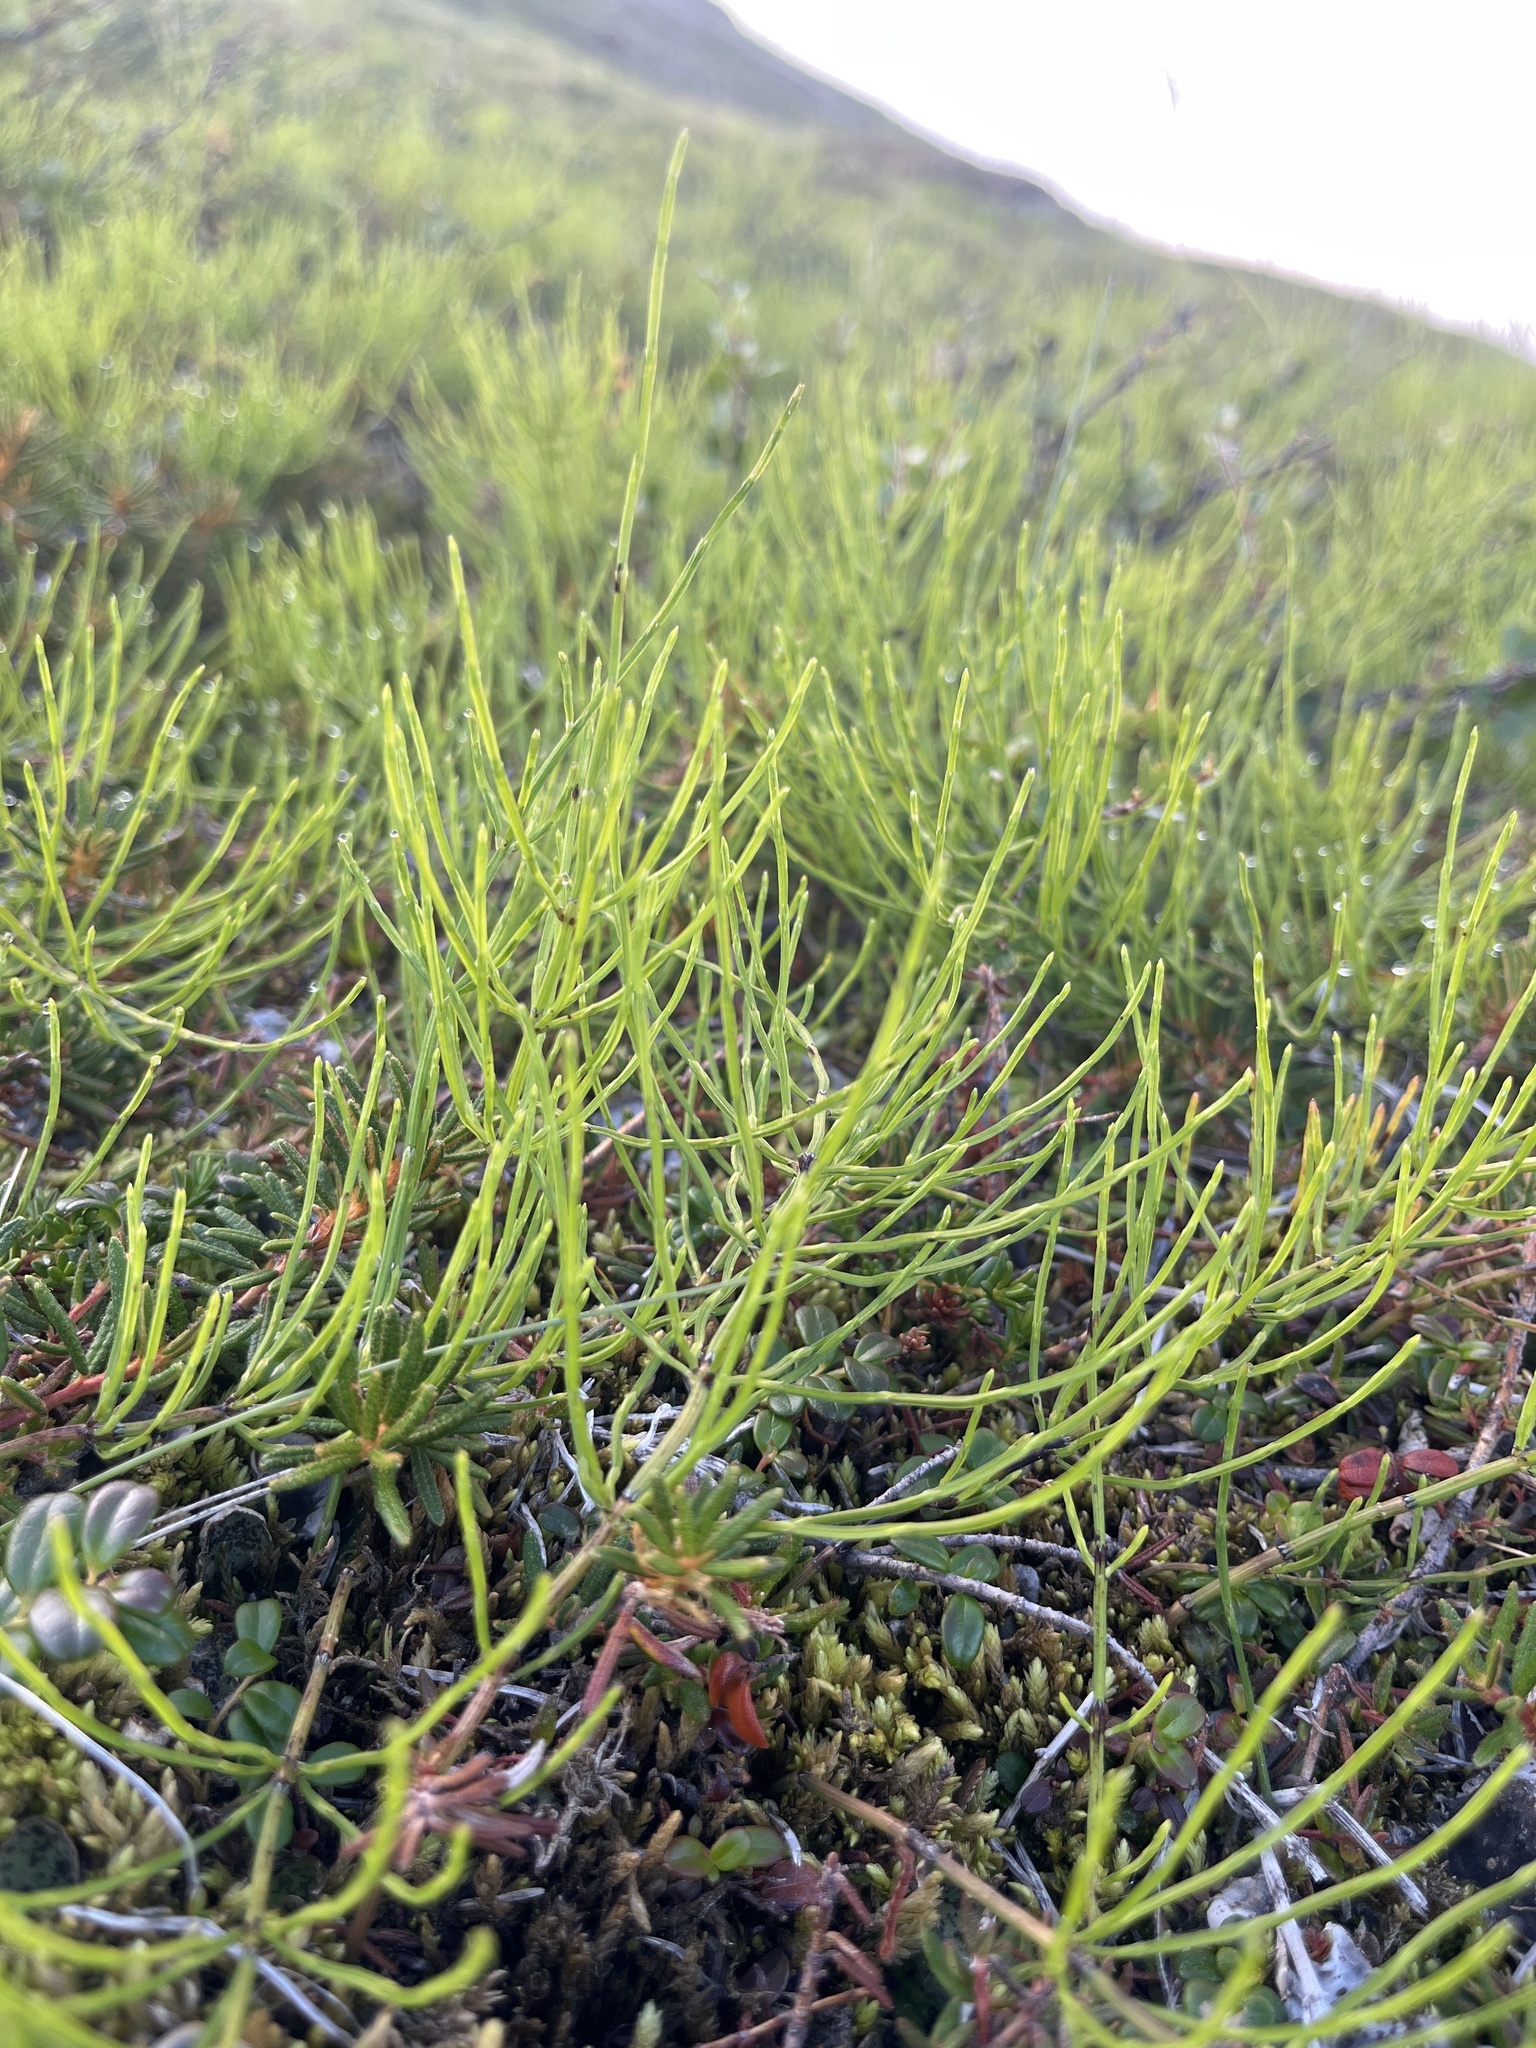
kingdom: Plantae
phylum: Tracheophyta
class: Polypodiopsida
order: Equisetales
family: Equisetaceae
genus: Equisetum
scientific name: Equisetum arvense
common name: Field horsetail
